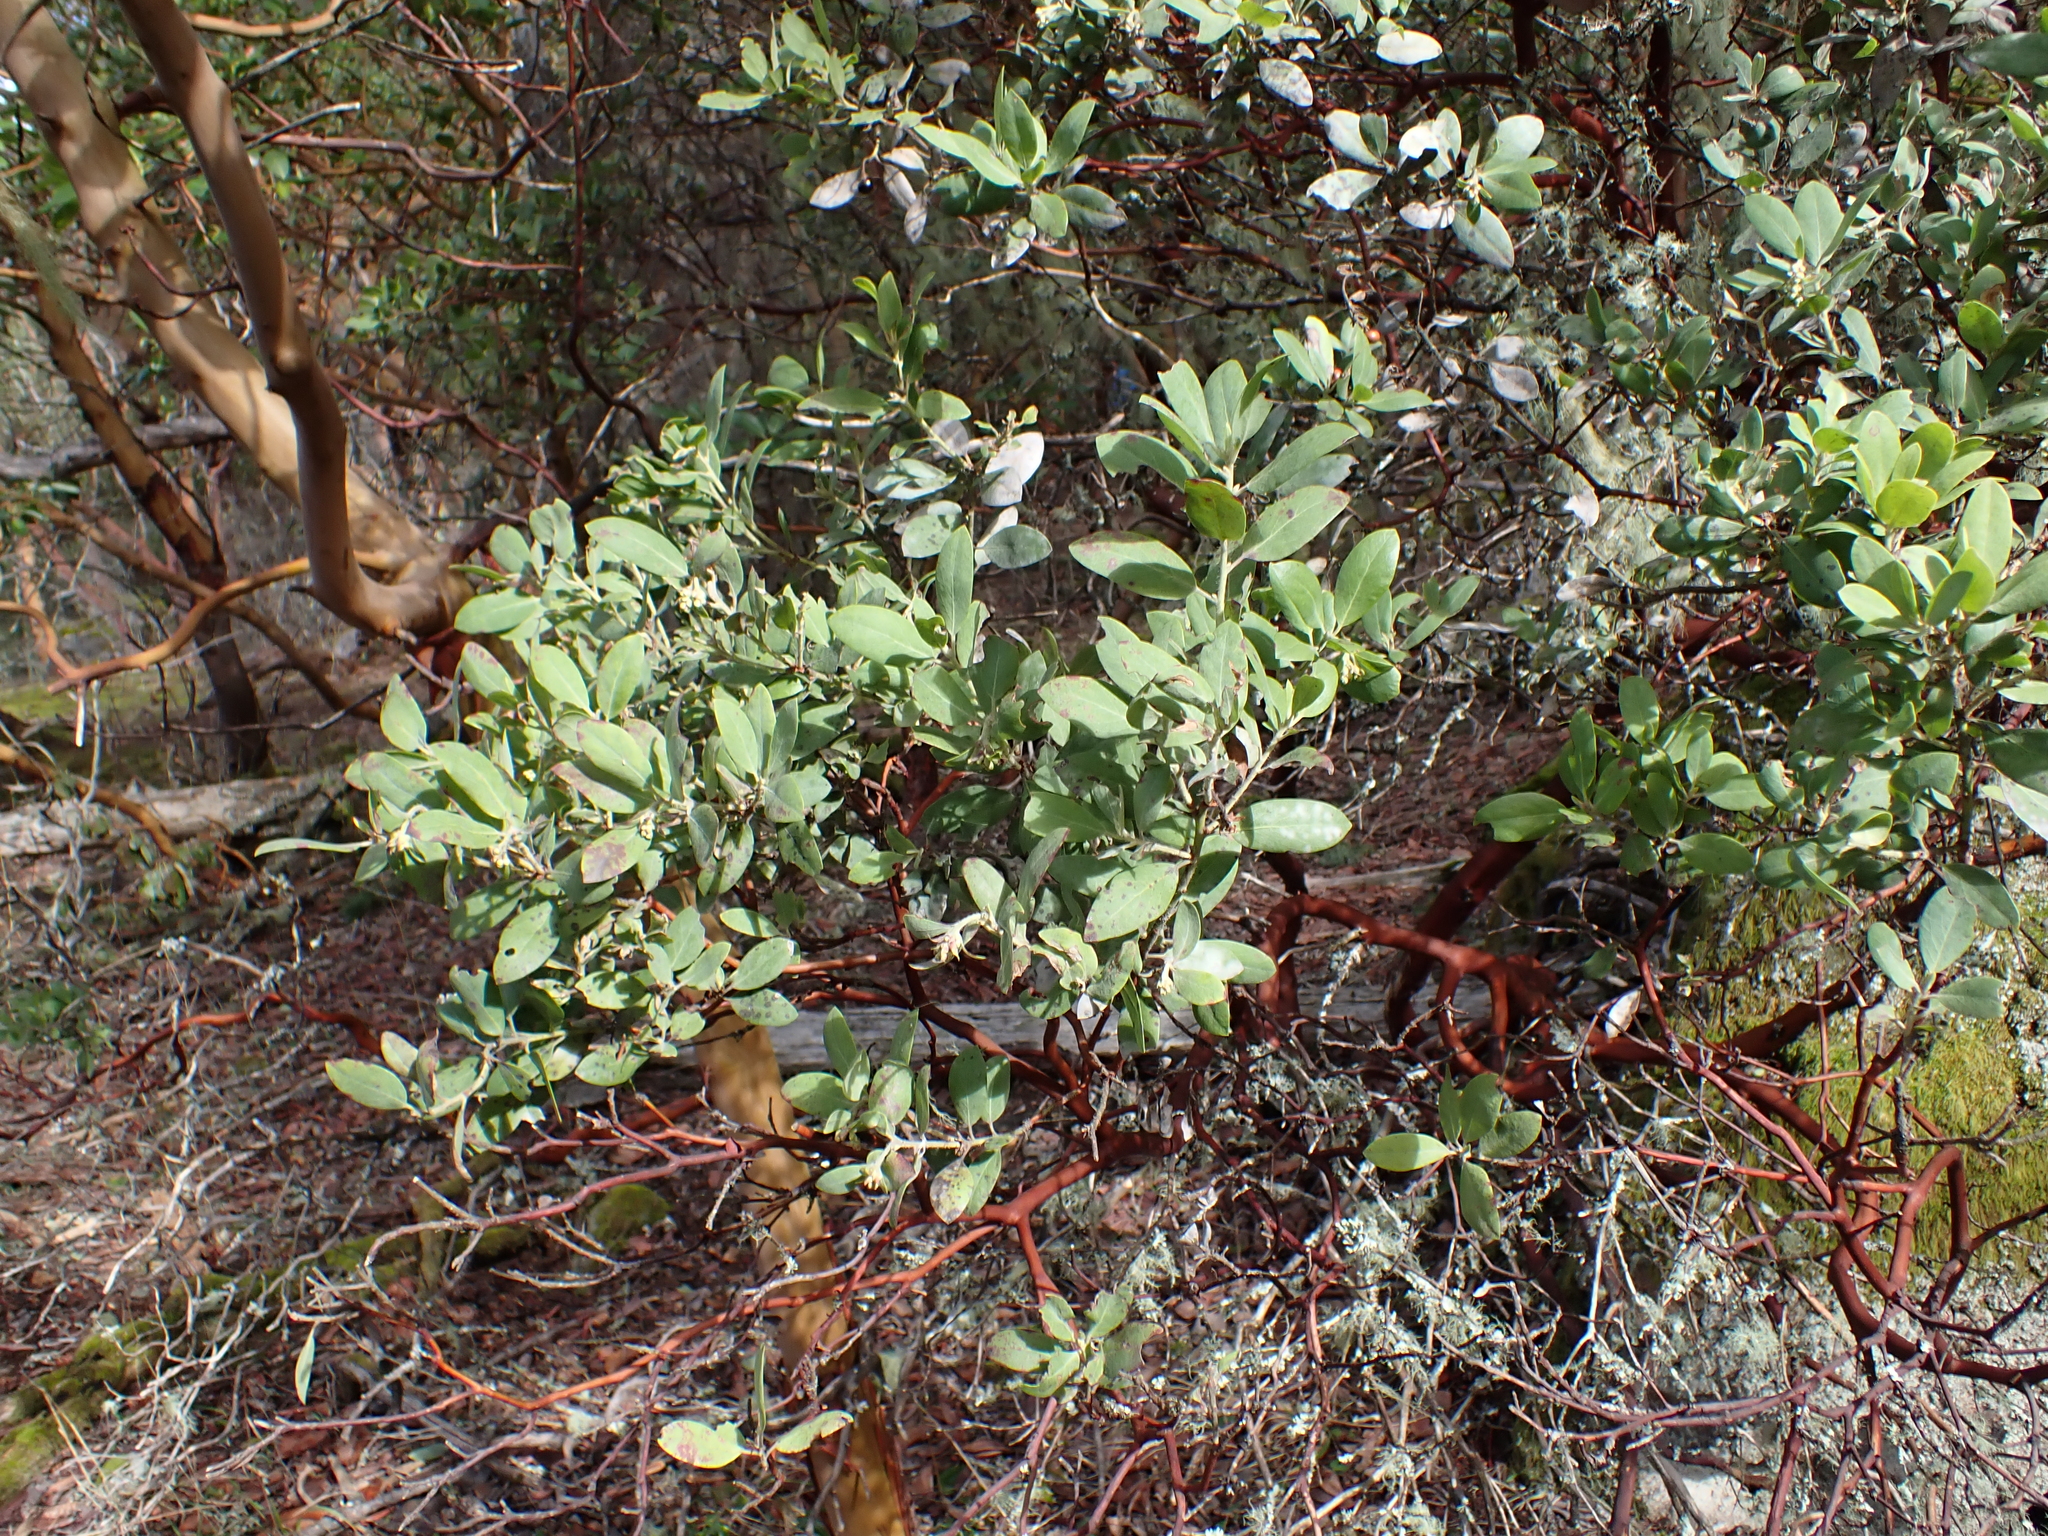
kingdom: Plantae
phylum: Tracheophyta
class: Magnoliopsida
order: Ericales
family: Ericaceae
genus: Arctostaphylos
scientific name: Arctostaphylos columbiana
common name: Bristly bearberry
